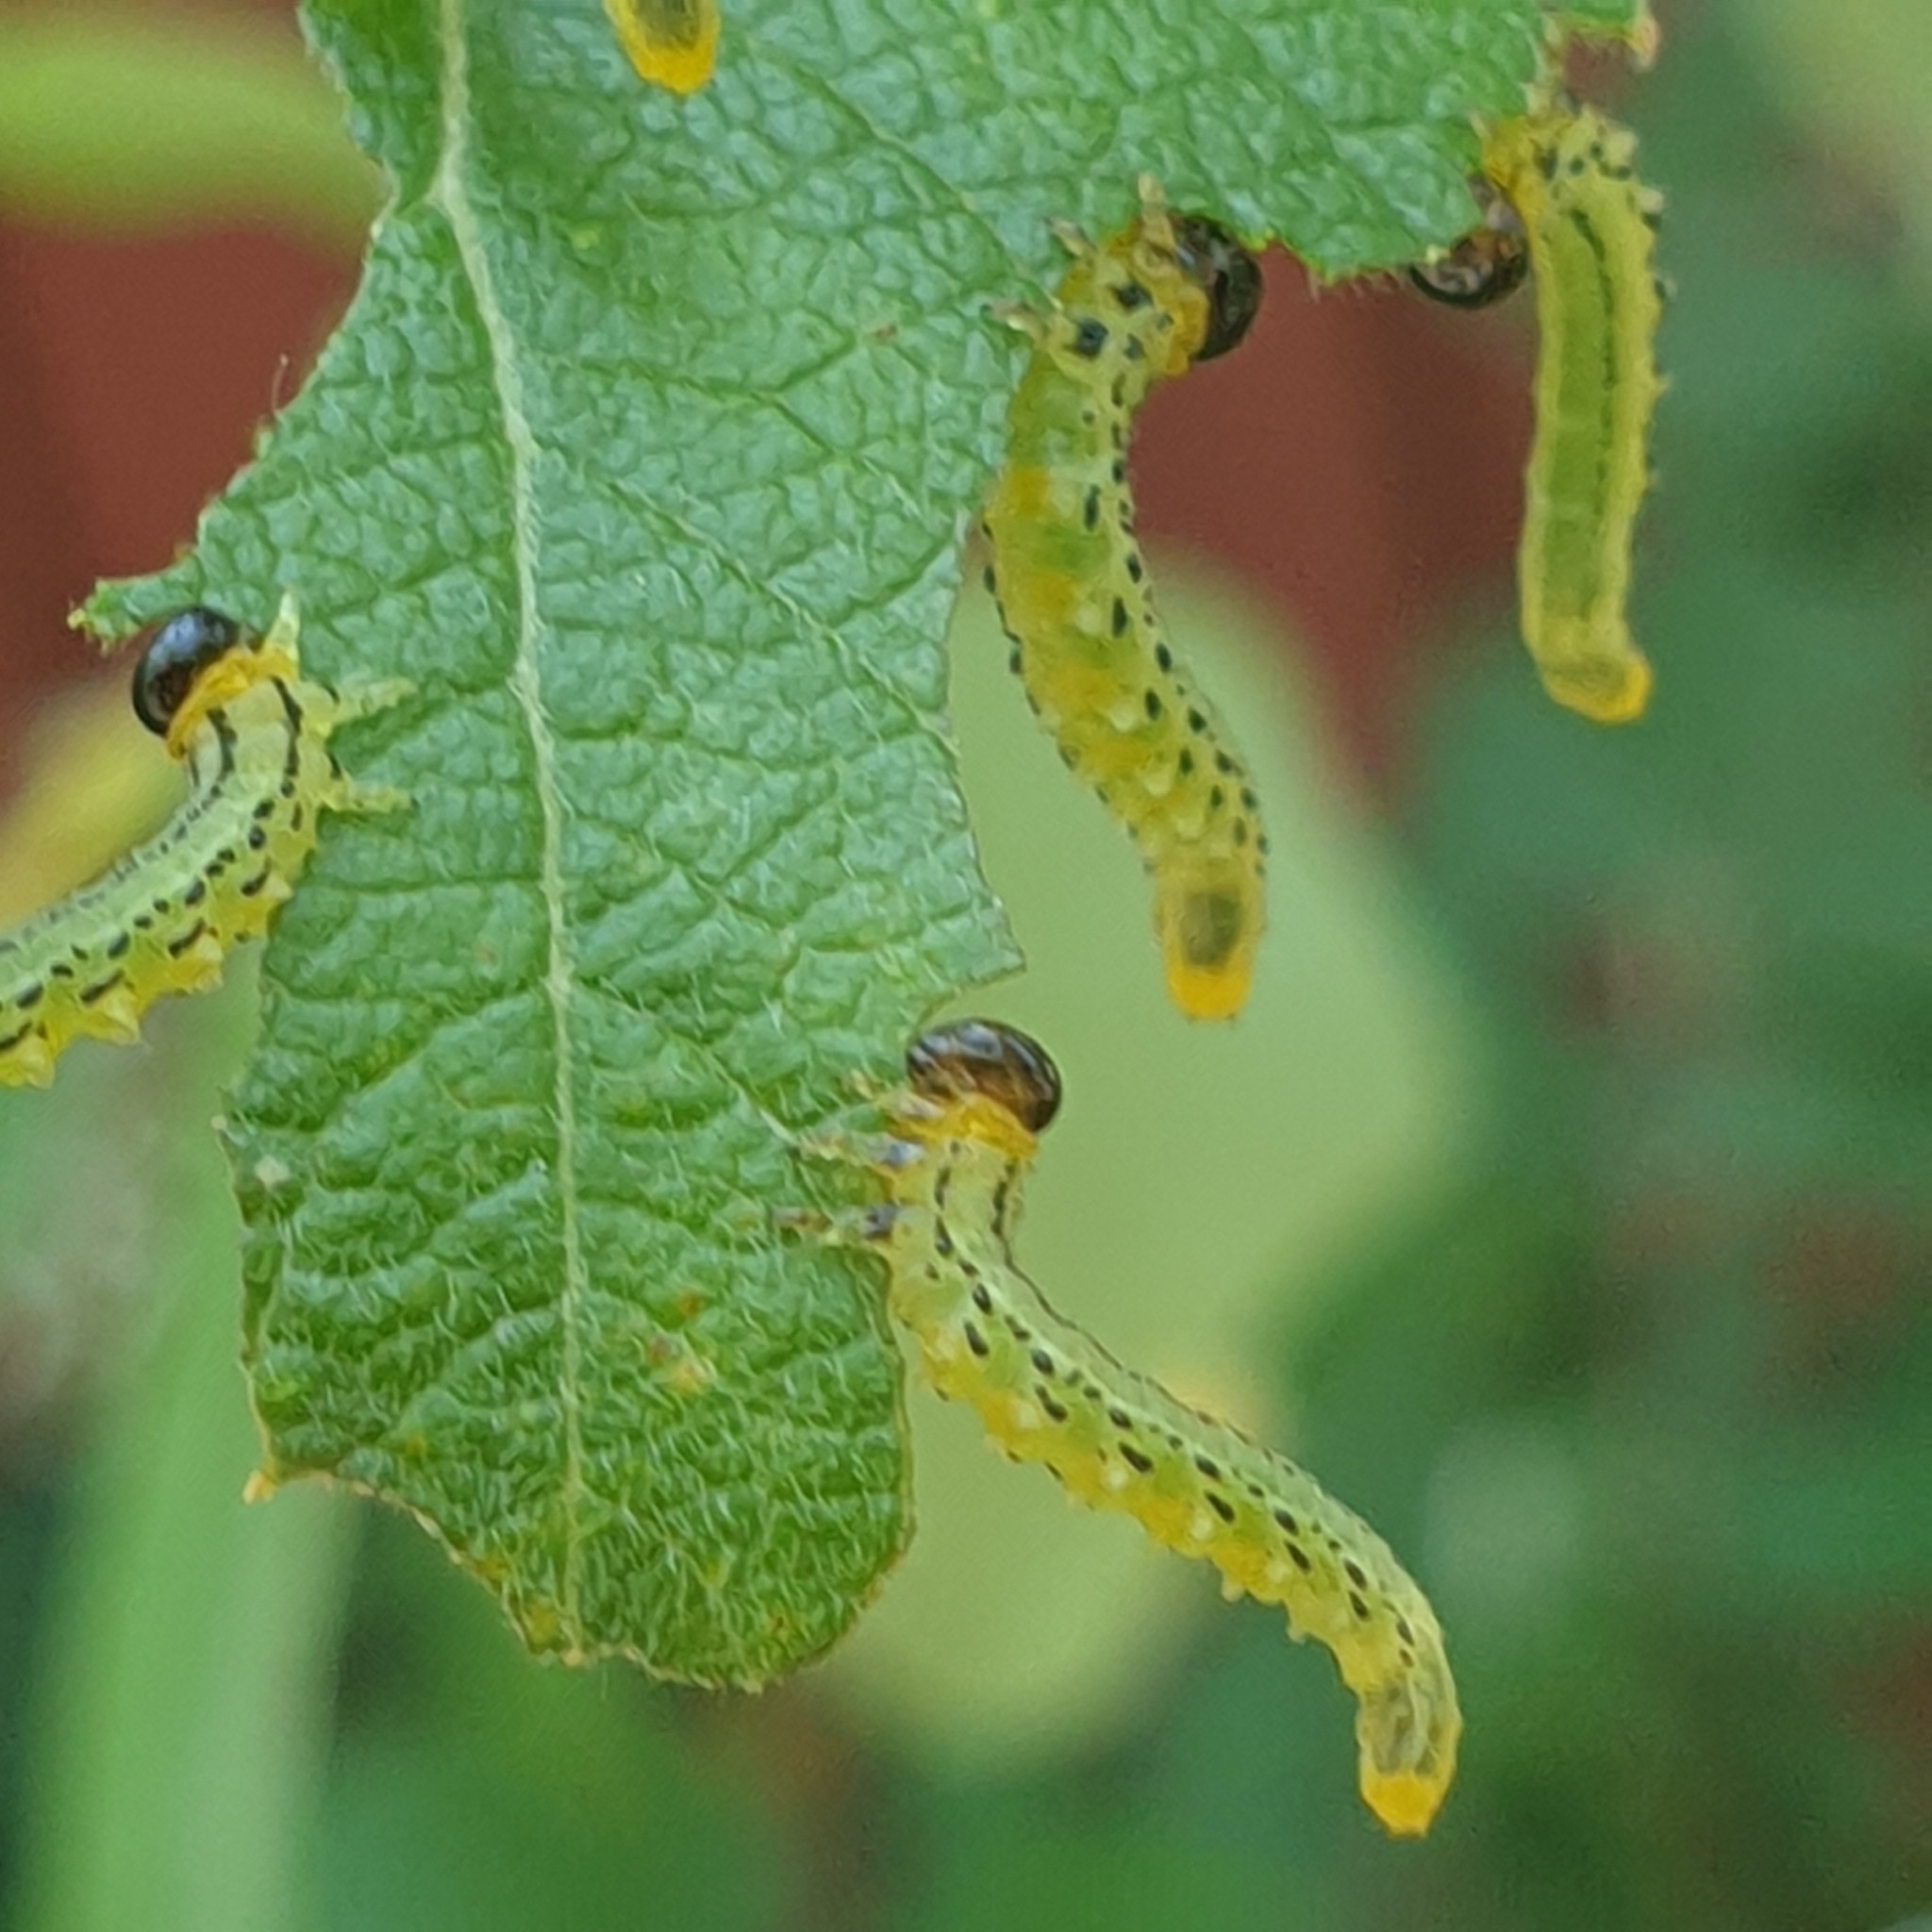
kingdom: Animalia
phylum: Arthropoda
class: Insecta
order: Hymenoptera
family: Tenthredinidae
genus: Nematus
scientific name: Nematus pavidus
